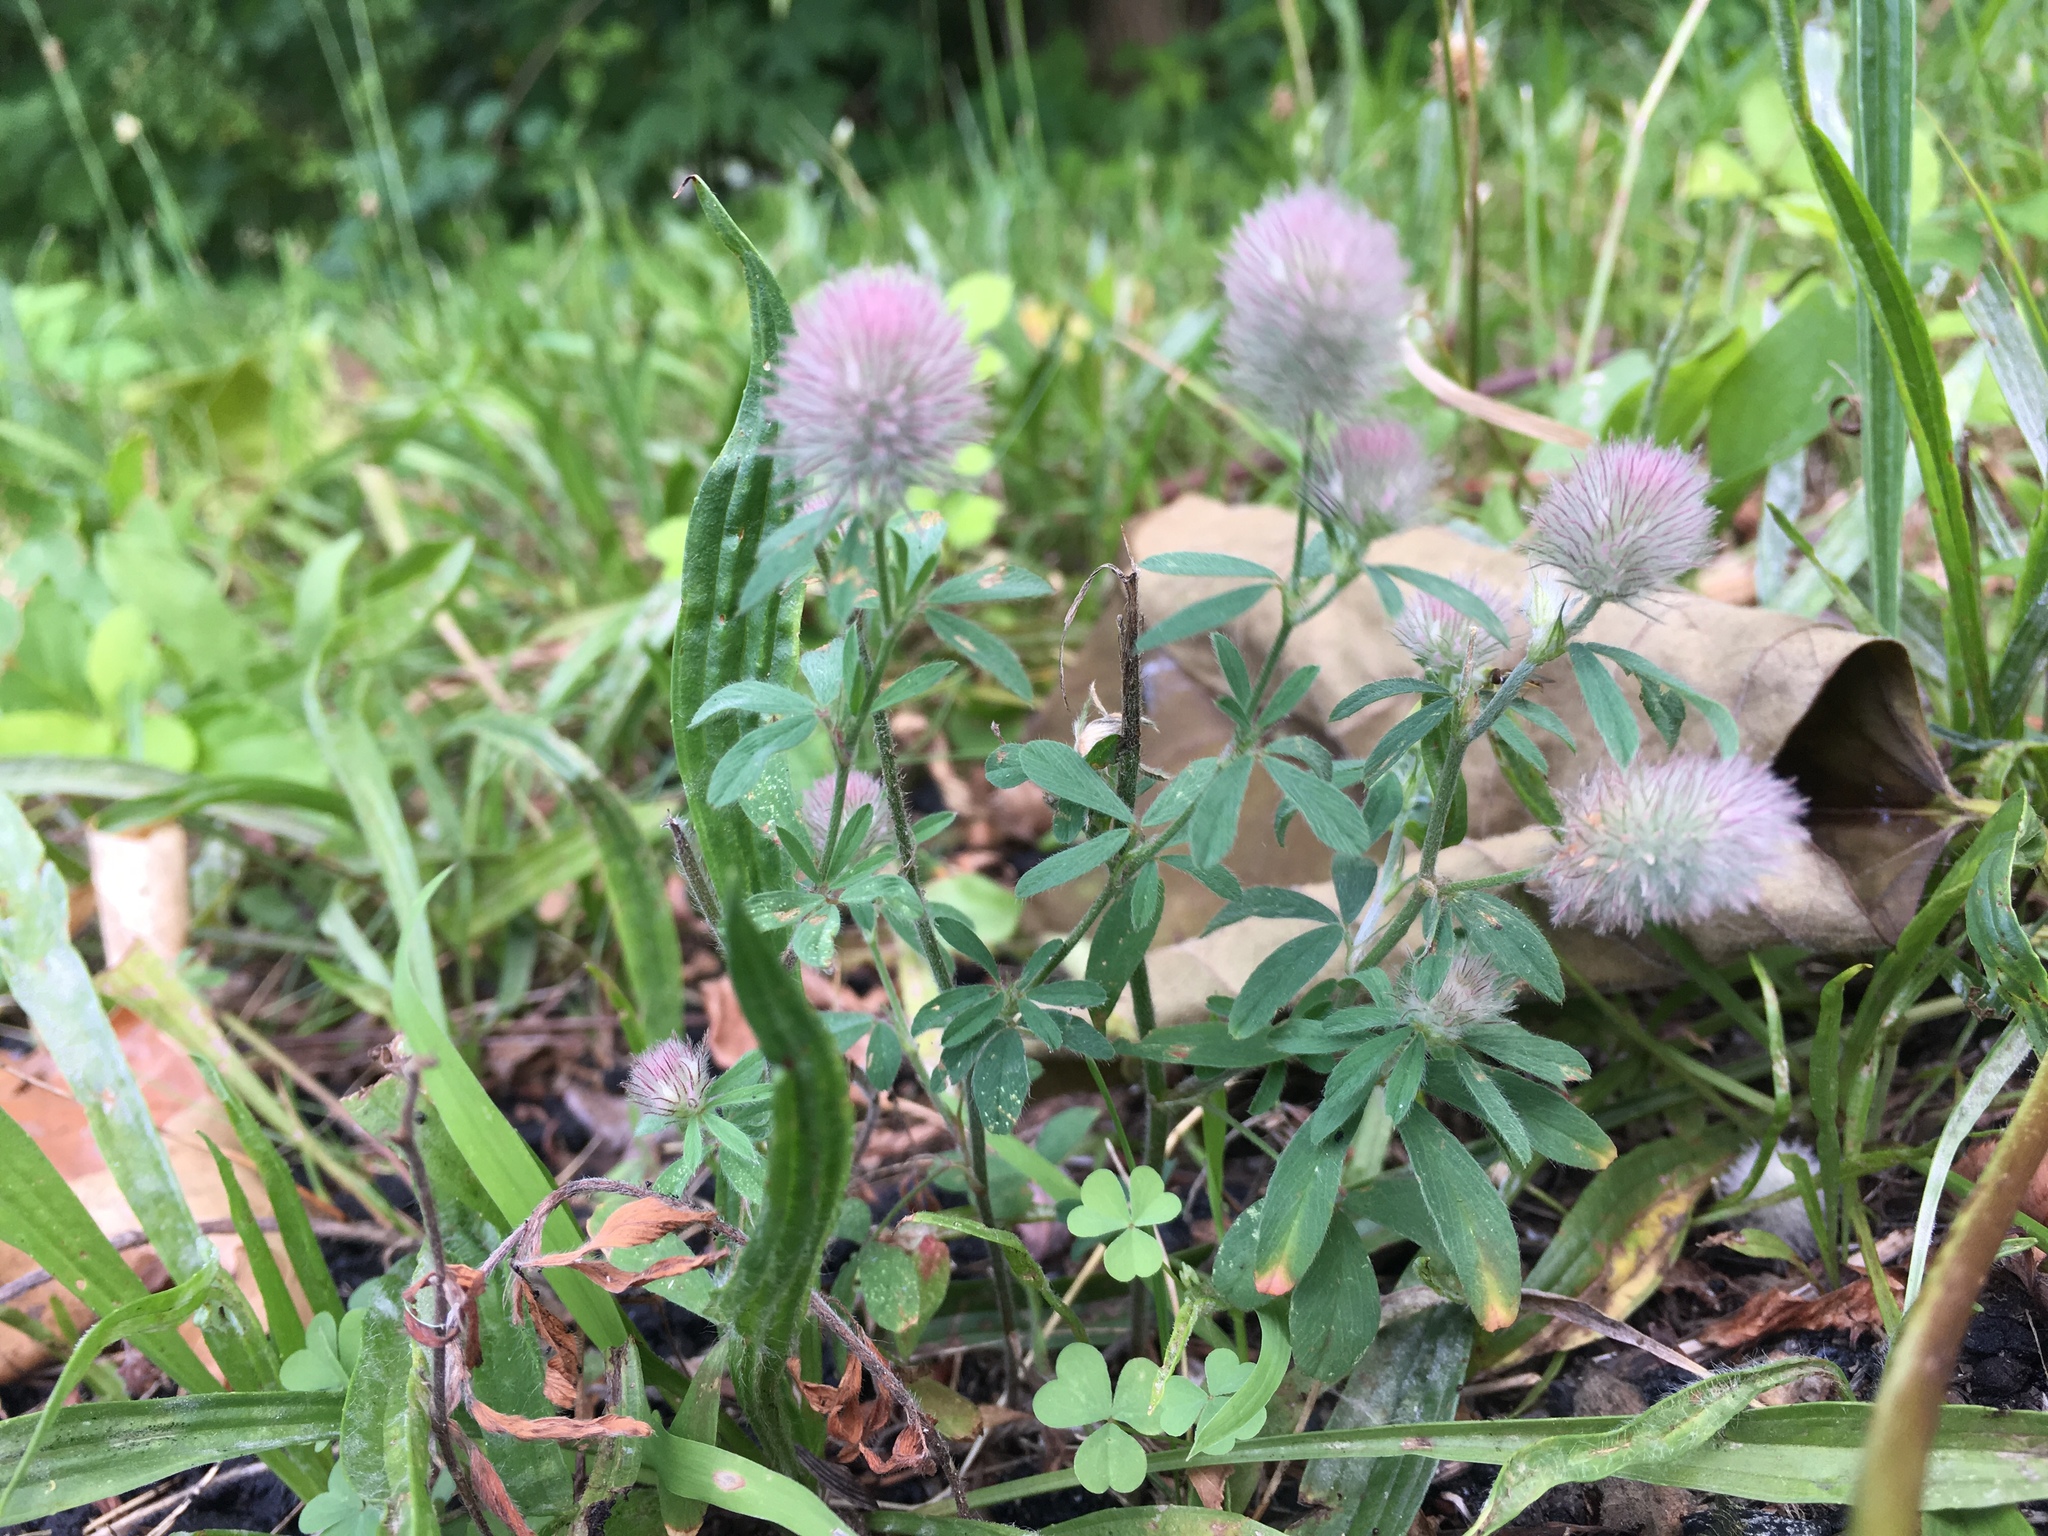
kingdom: Plantae
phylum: Tracheophyta
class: Magnoliopsida
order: Fabales
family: Fabaceae
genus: Trifolium
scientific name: Trifolium arvense
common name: Hare's-foot clover
